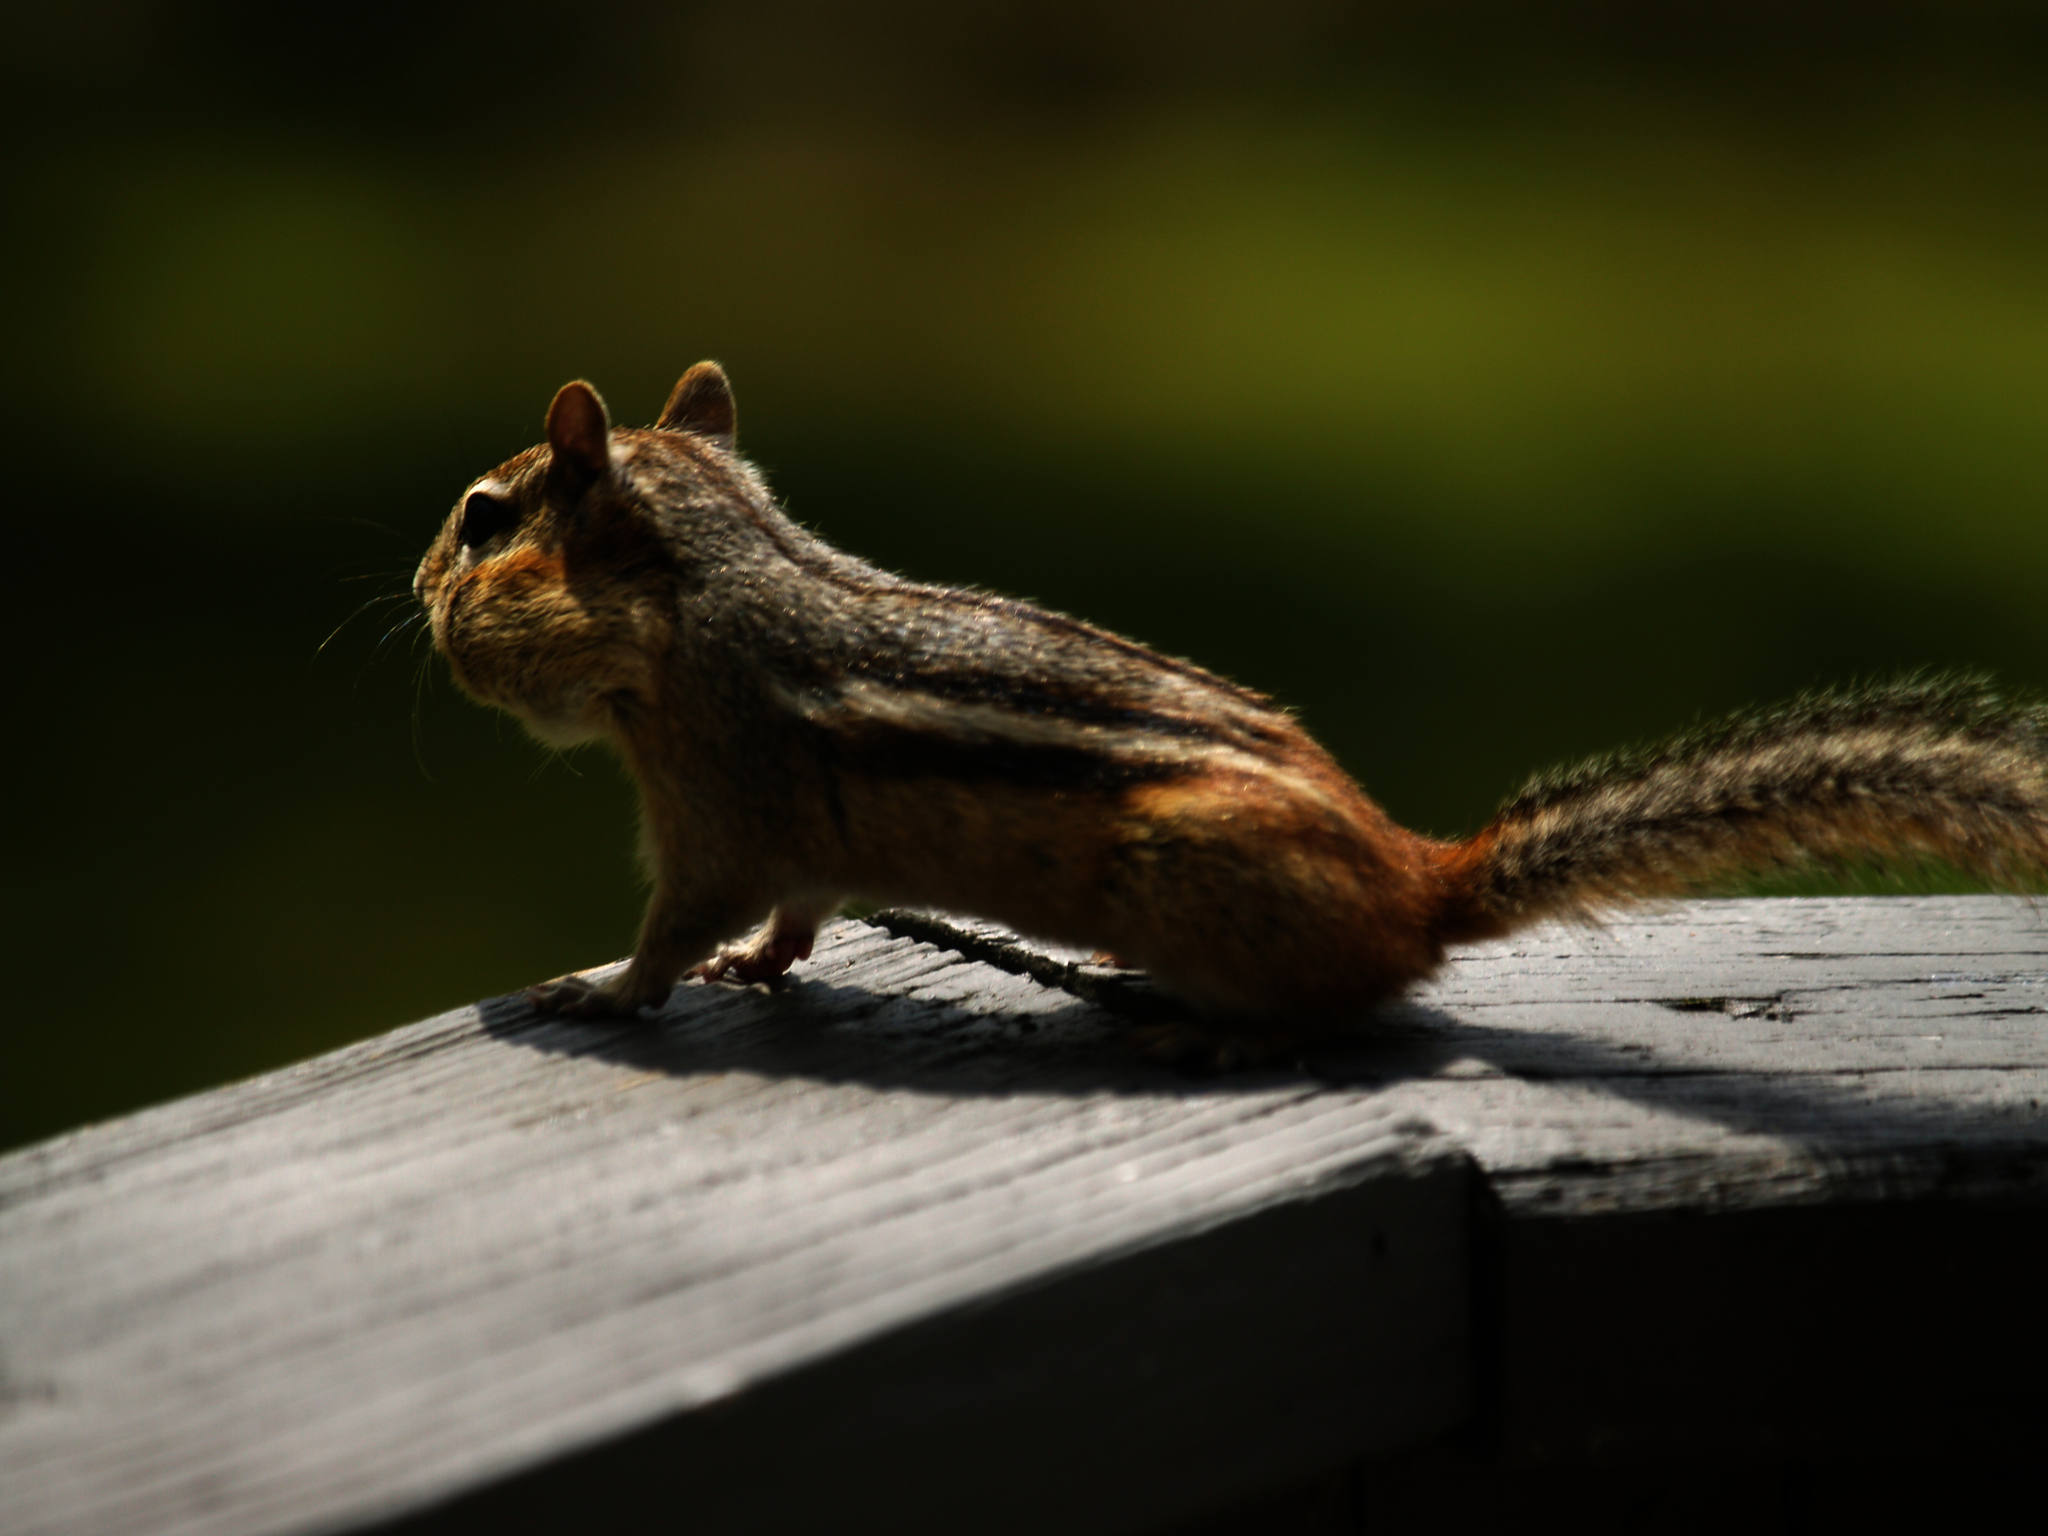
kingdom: Animalia
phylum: Chordata
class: Mammalia
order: Rodentia
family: Sciuridae
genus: Tamias
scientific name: Tamias striatus
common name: Eastern chipmunk
